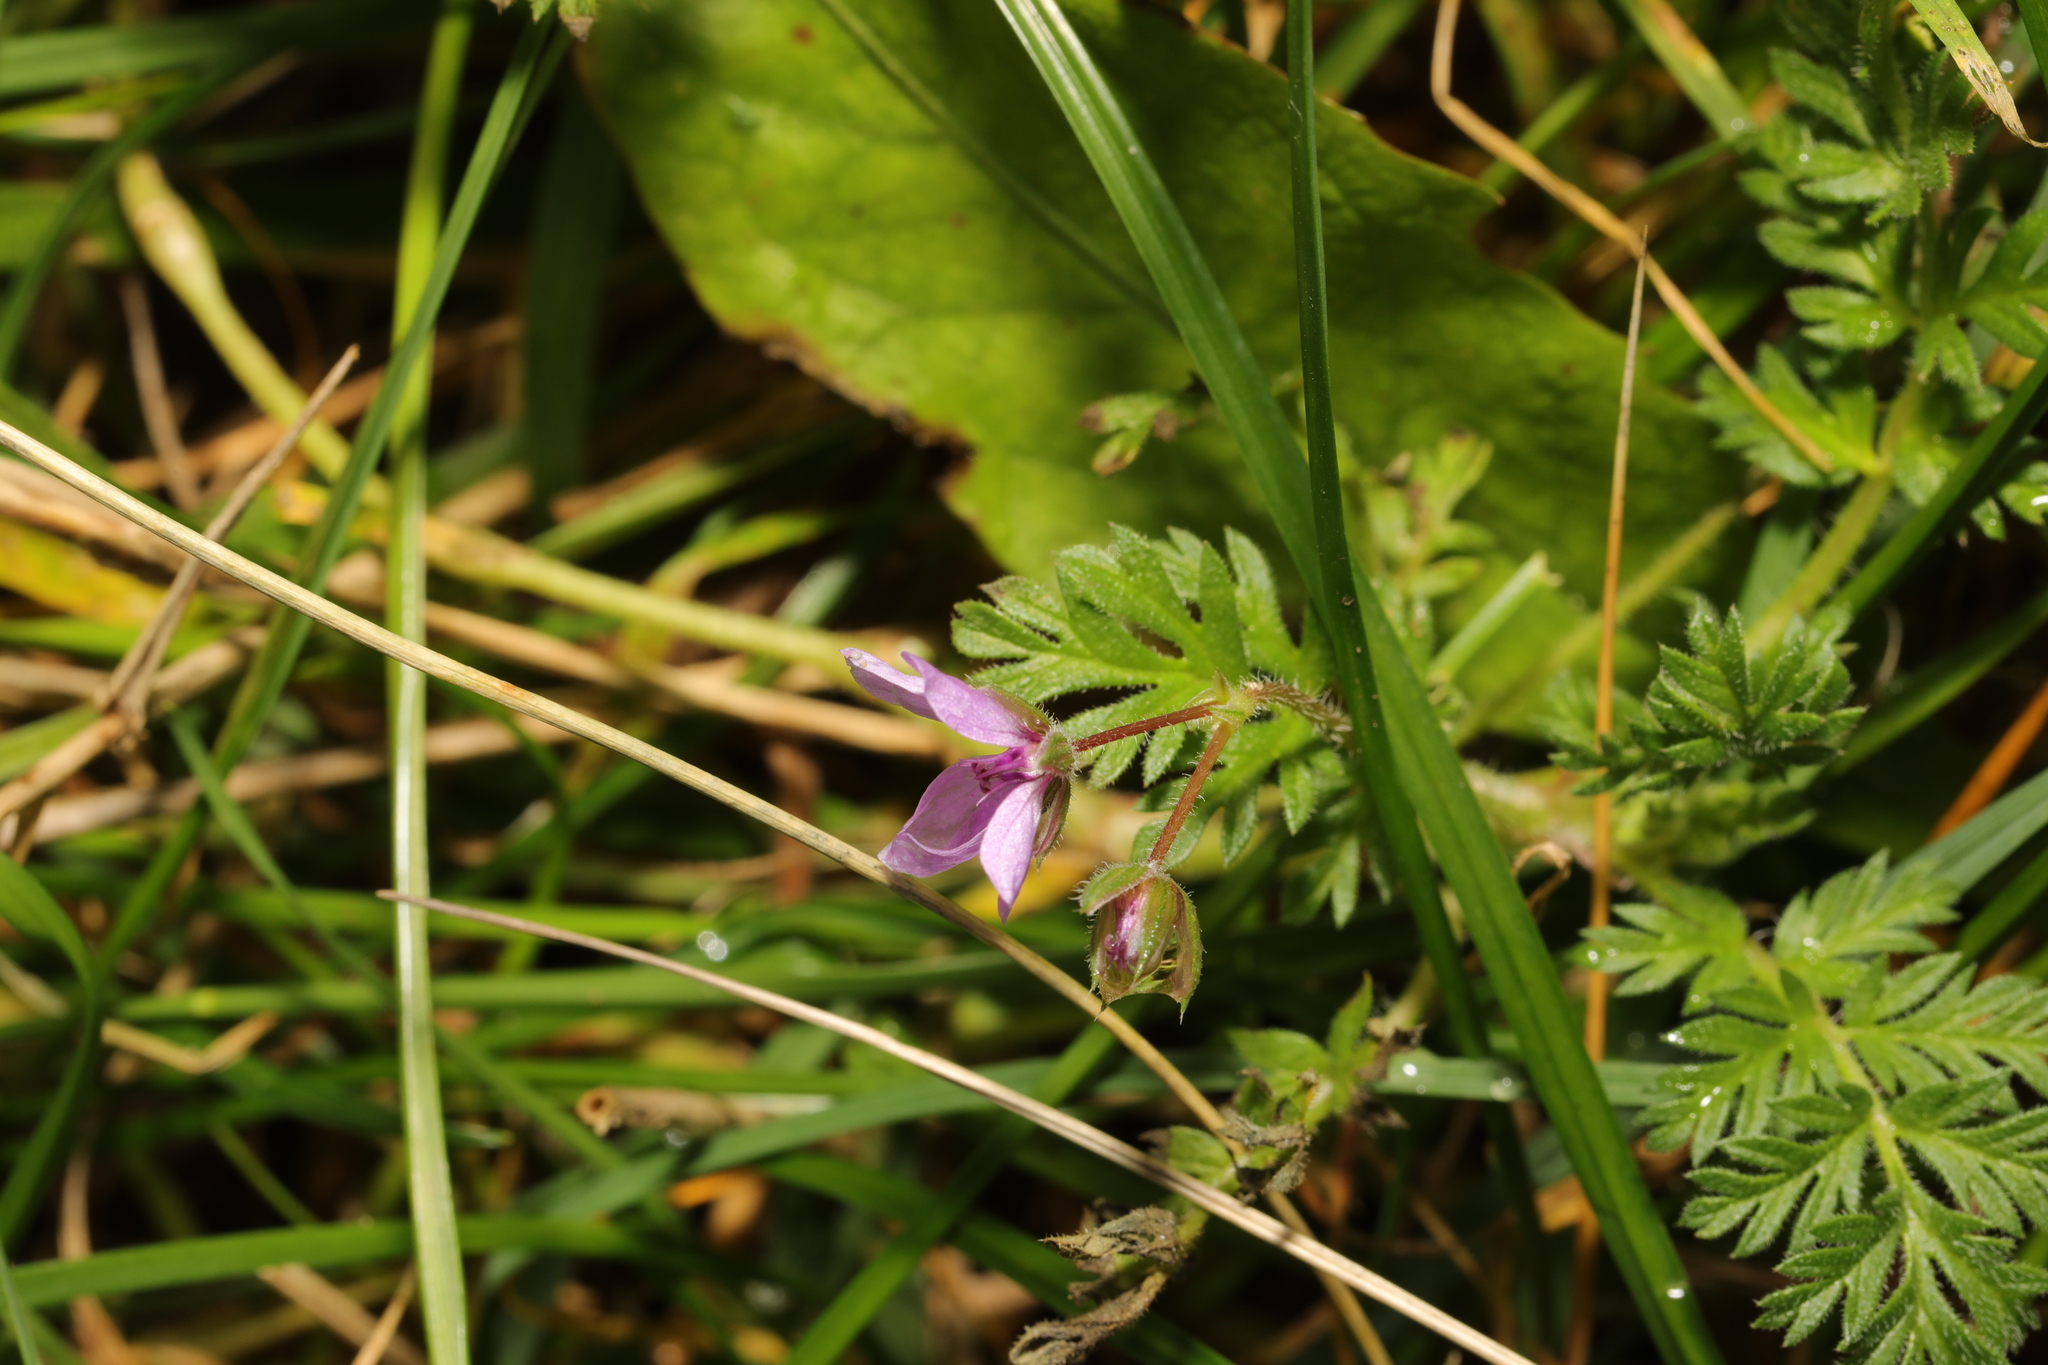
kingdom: Plantae
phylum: Tracheophyta
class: Magnoliopsida
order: Geraniales
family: Geraniaceae
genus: Erodium
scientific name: Erodium cicutarium
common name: Common stork's-bill
